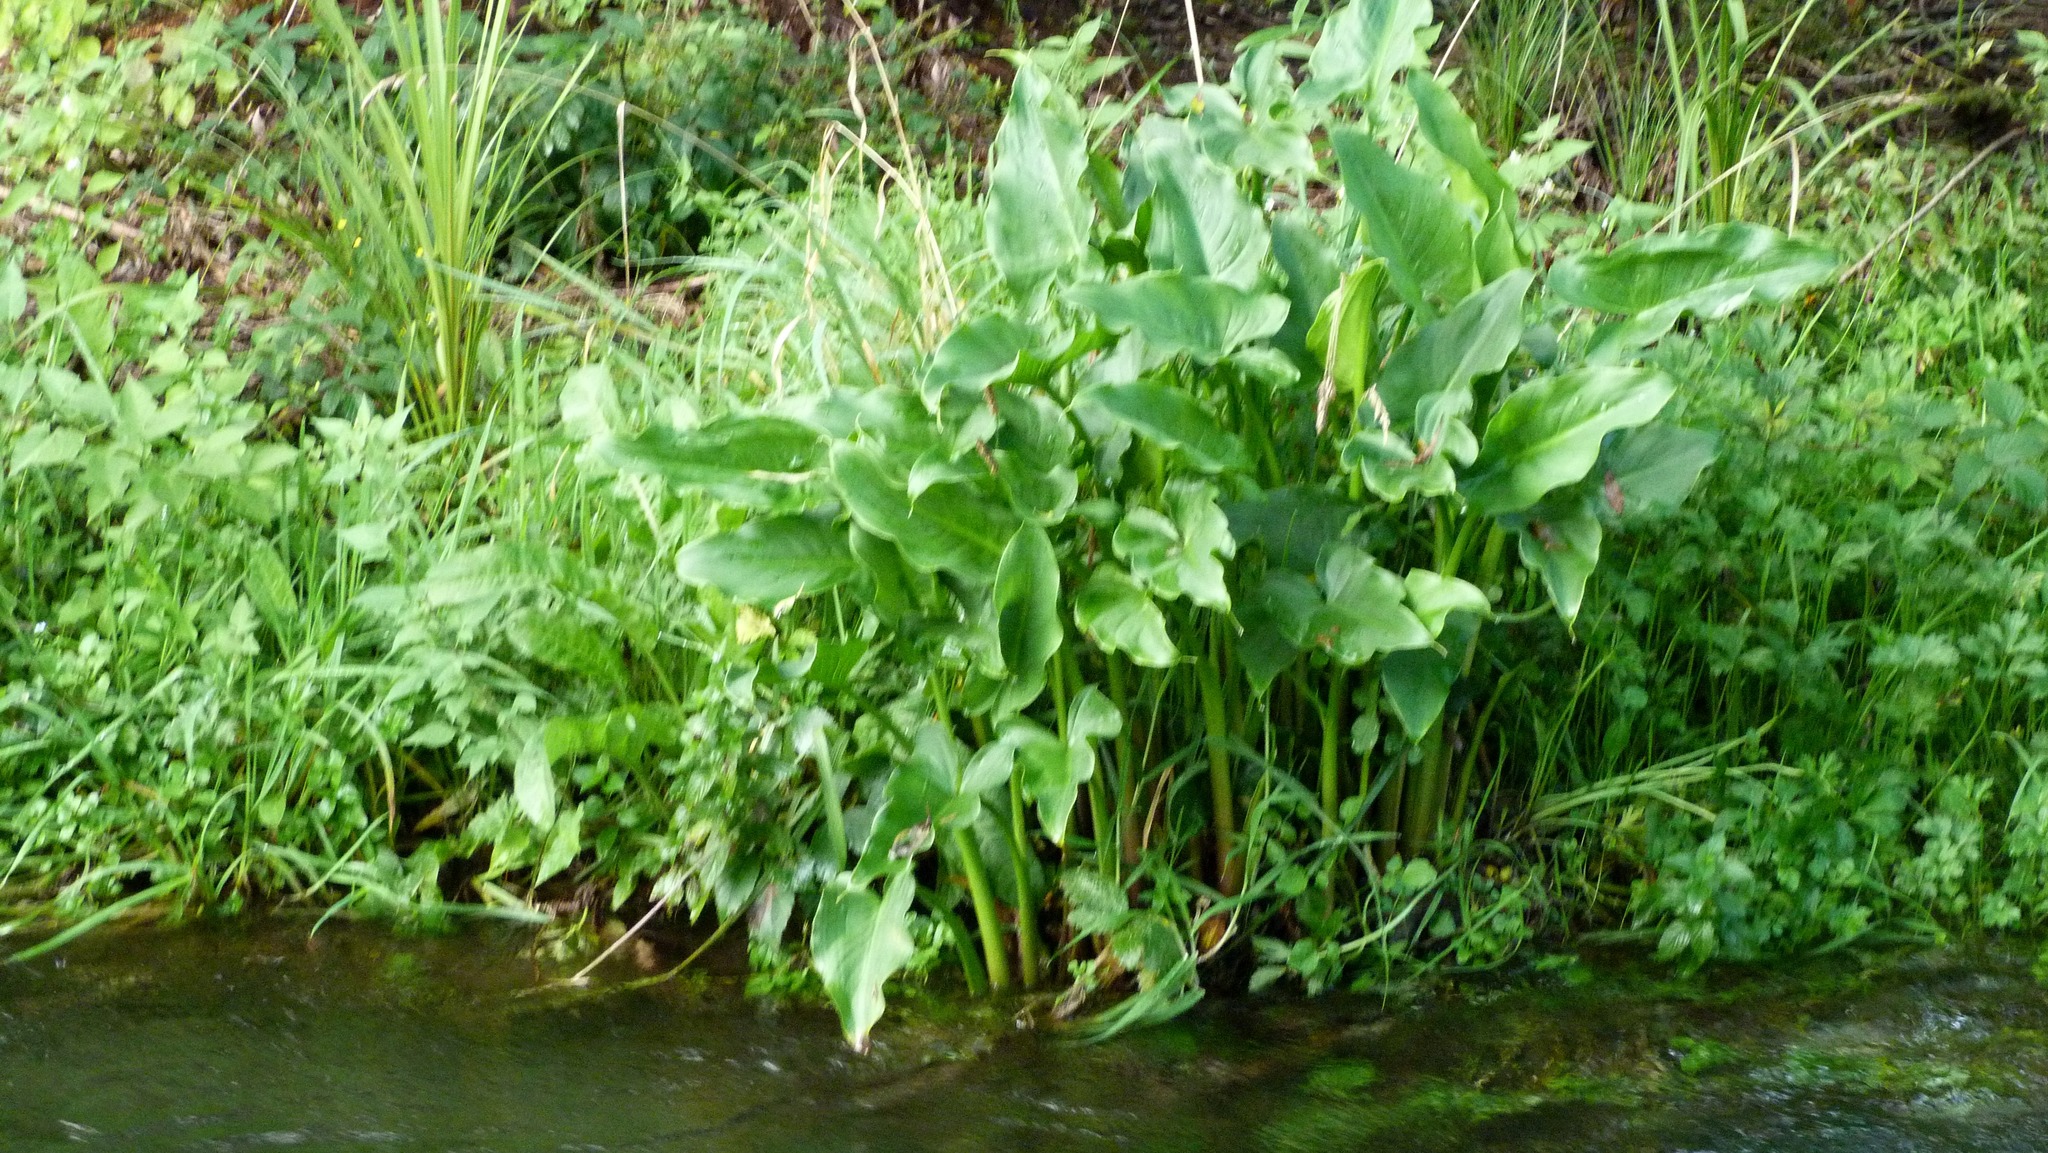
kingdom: Plantae
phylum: Tracheophyta
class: Liliopsida
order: Alismatales
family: Araceae
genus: Zantedeschia
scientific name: Zantedeschia aethiopica
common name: Altar-lily
